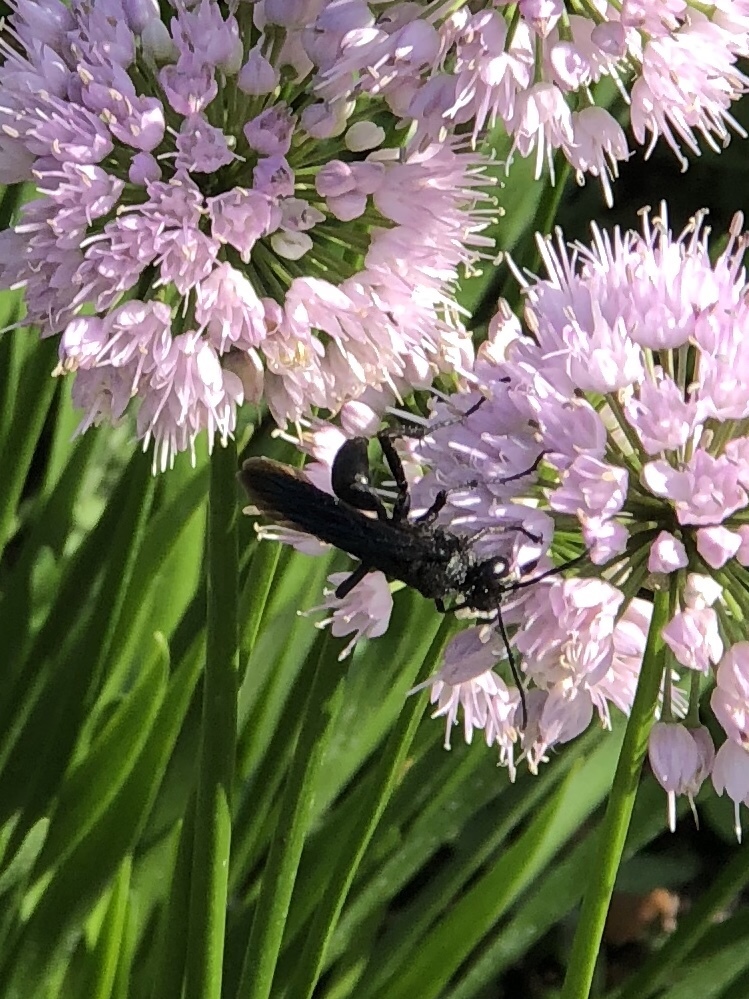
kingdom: Animalia
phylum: Arthropoda
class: Insecta
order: Hymenoptera
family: Sphecidae
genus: Sphex
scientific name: Sphex pensylvanicus
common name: Great black digger wasp
